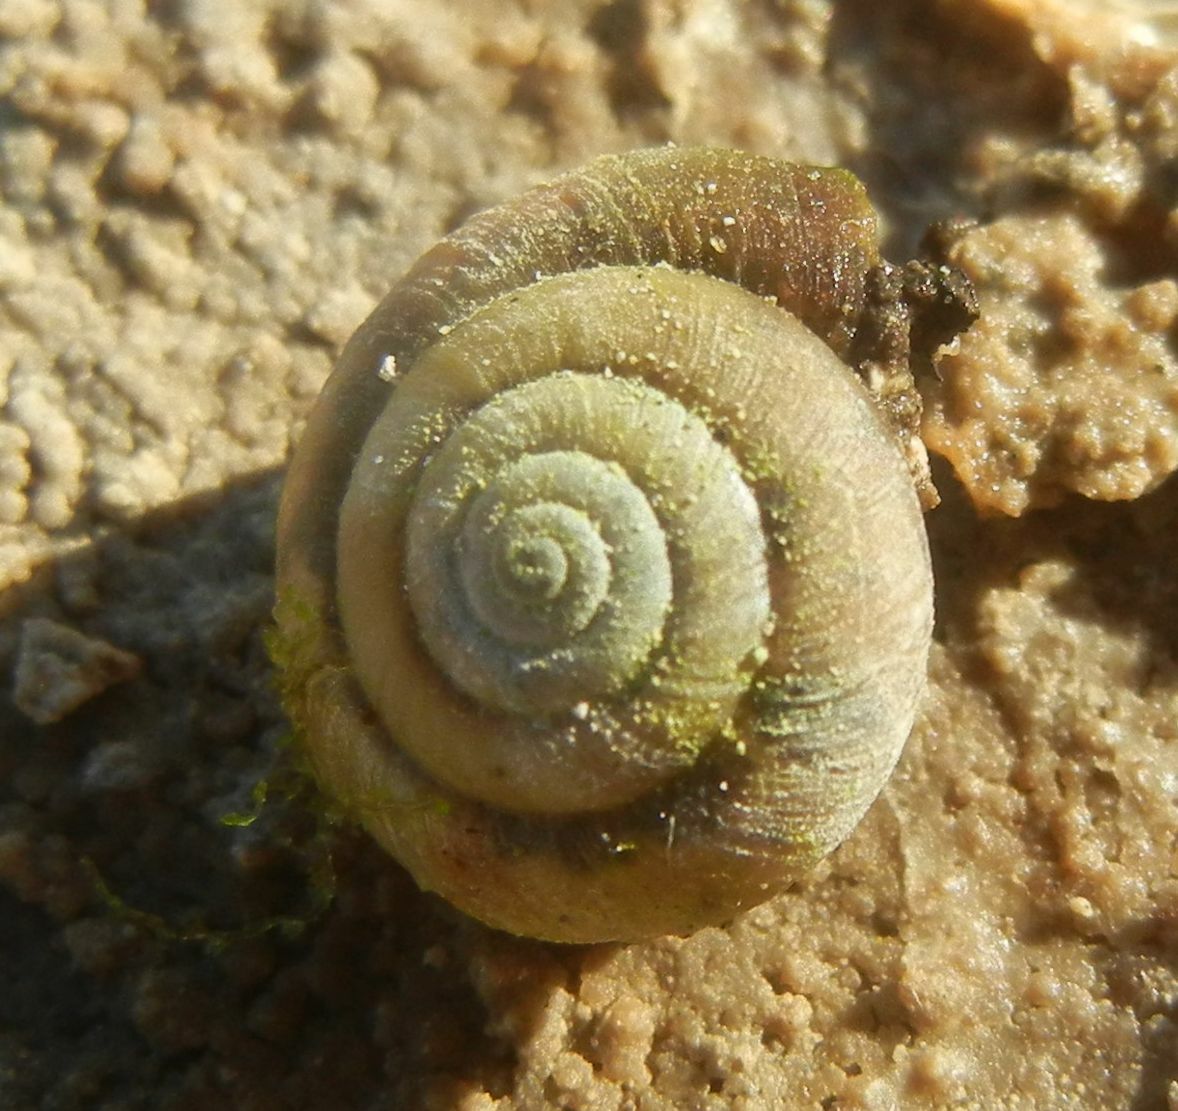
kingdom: Animalia
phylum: Mollusca
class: Gastropoda
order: Stylommatophora
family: Hygromiidae
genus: Trochulus
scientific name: Trochulus striolatus
